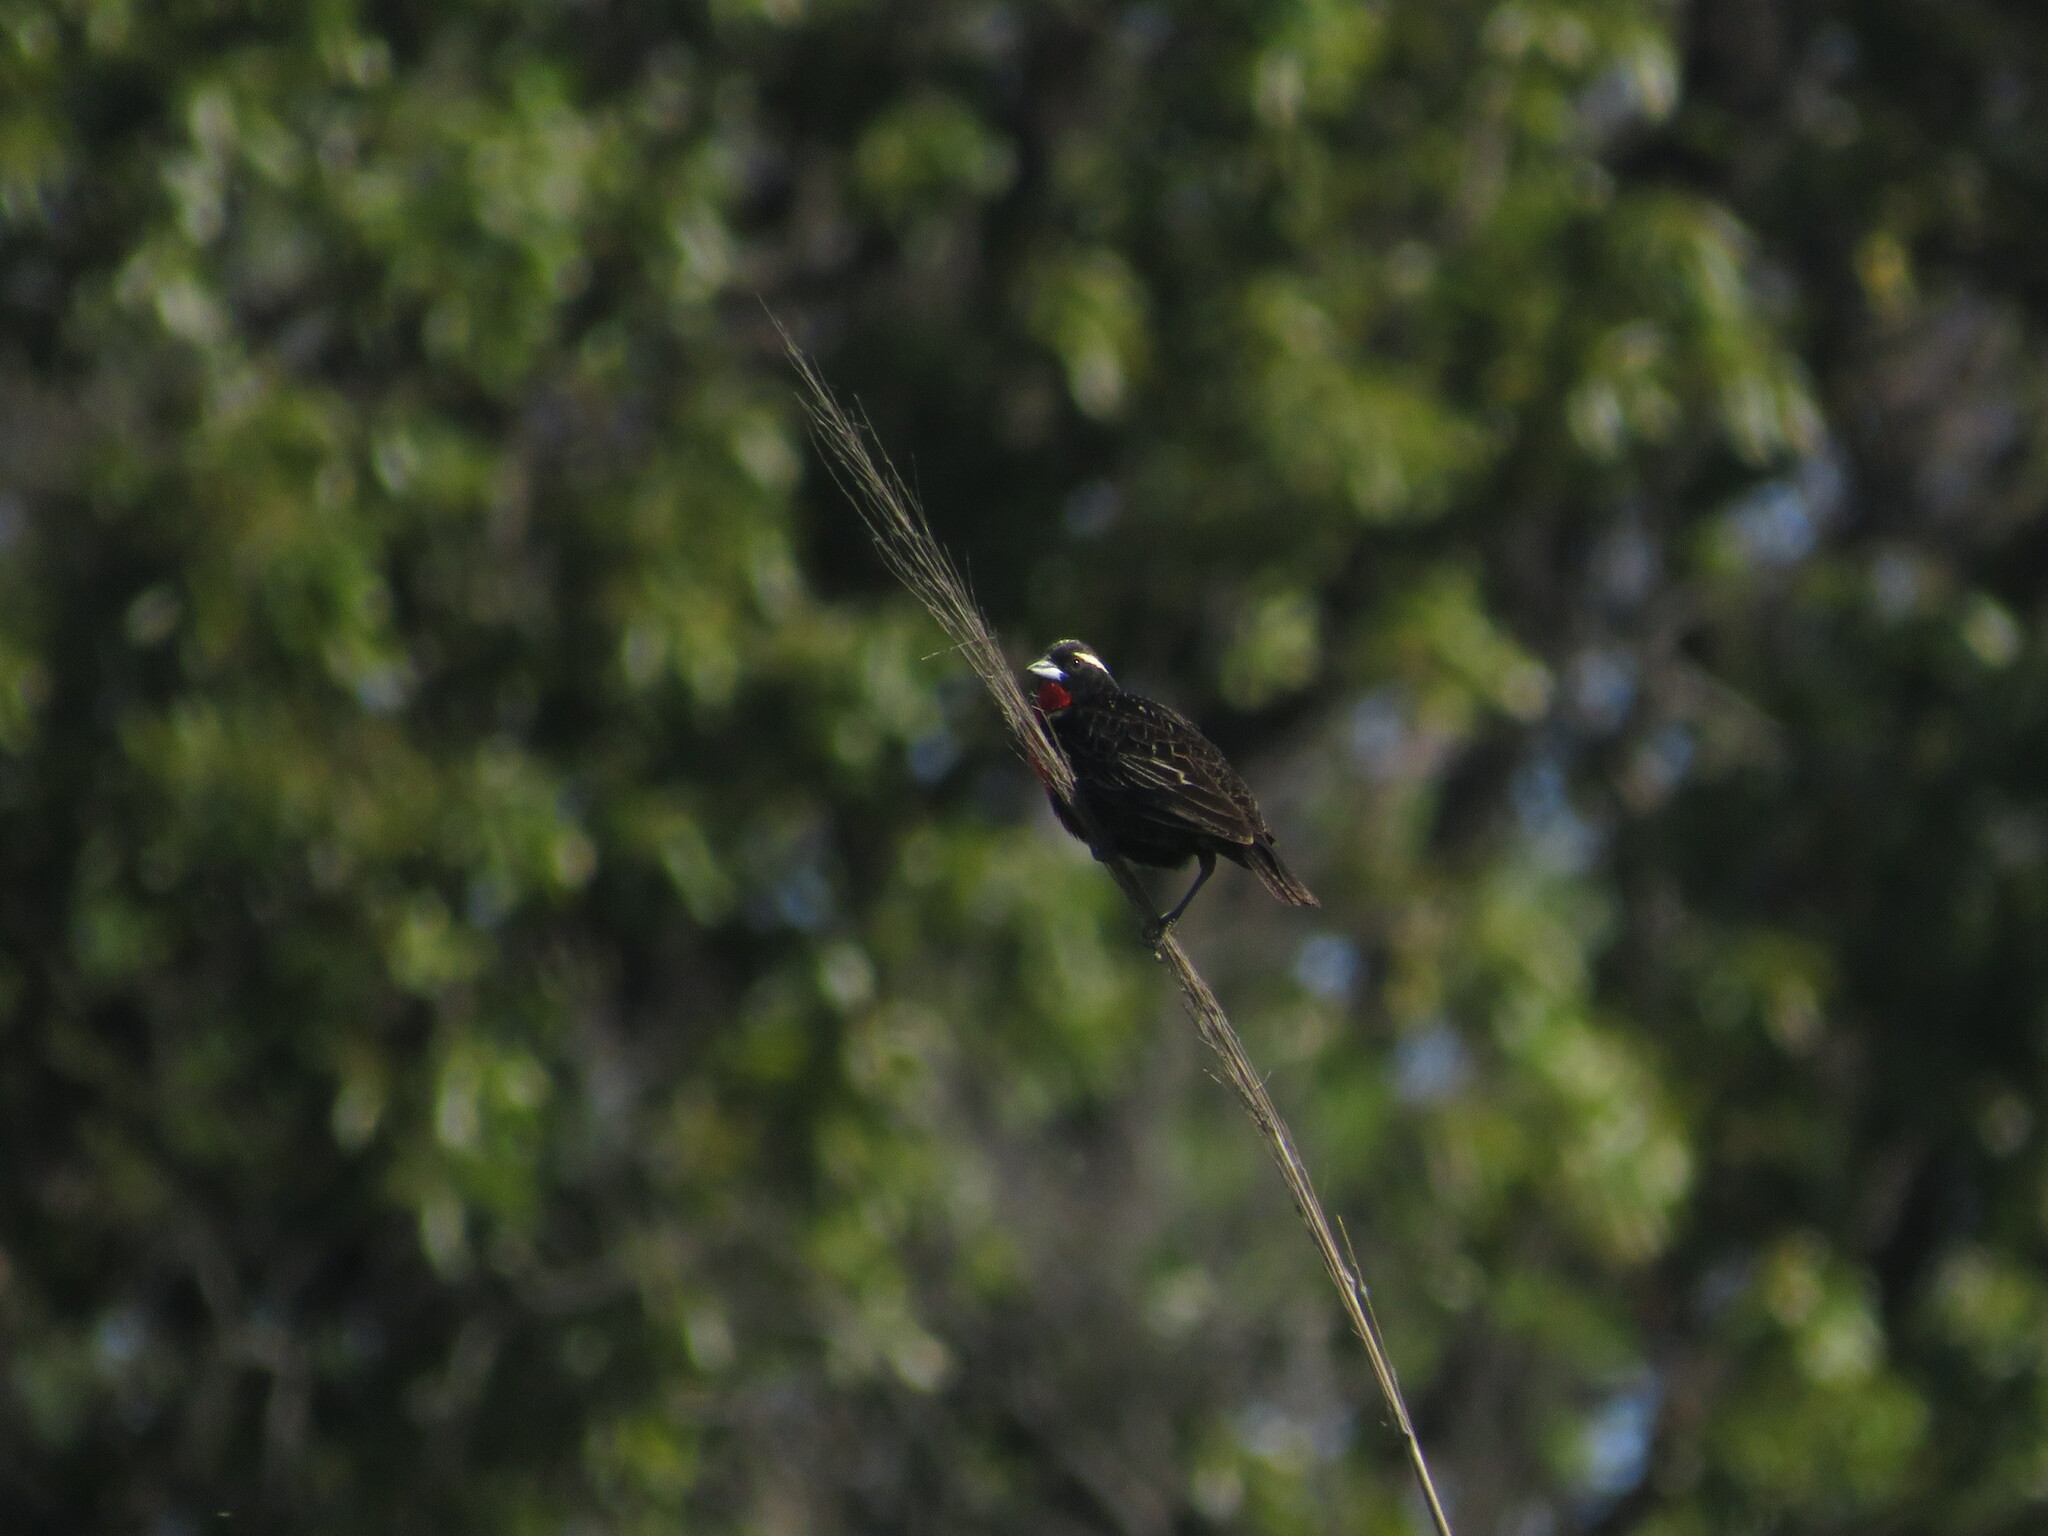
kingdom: Animalia
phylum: Chordata
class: Aves
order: Passeriformes
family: Icteridae
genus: Sturnella
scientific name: Sturnella superciliaris
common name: White-browed blackbird
